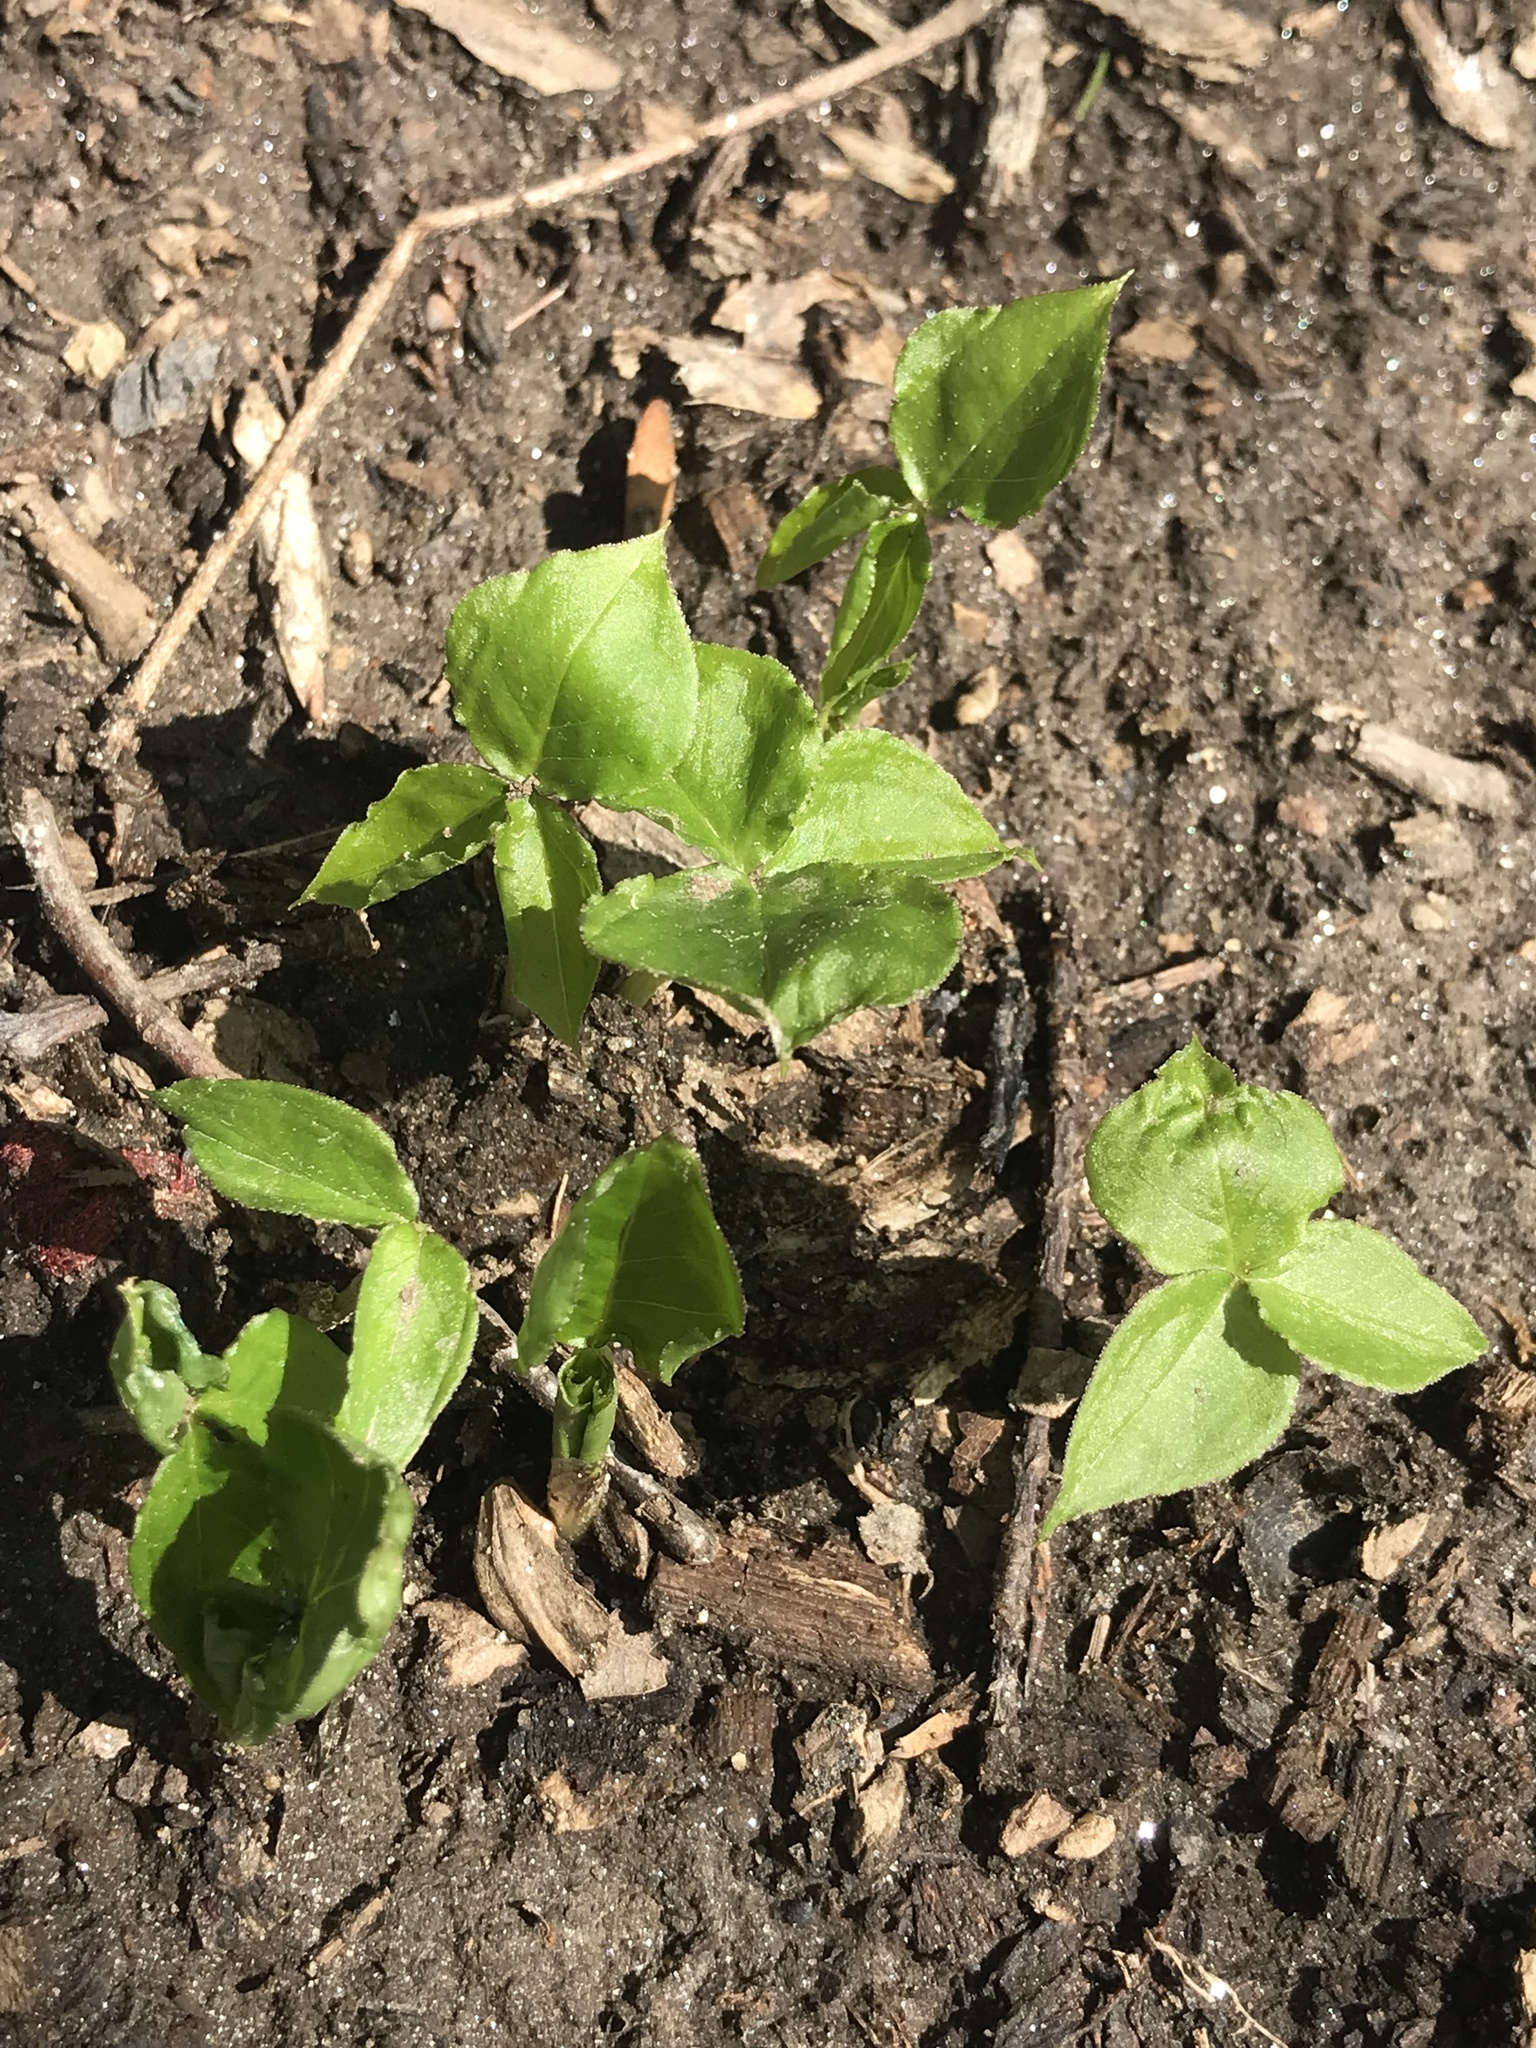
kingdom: Plantae
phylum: Tracheophyta
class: Liliopsida
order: Alismatales
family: Araceae
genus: Arisaema
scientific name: Arisaema triphyllum
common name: Jack-in-the-pulpit
